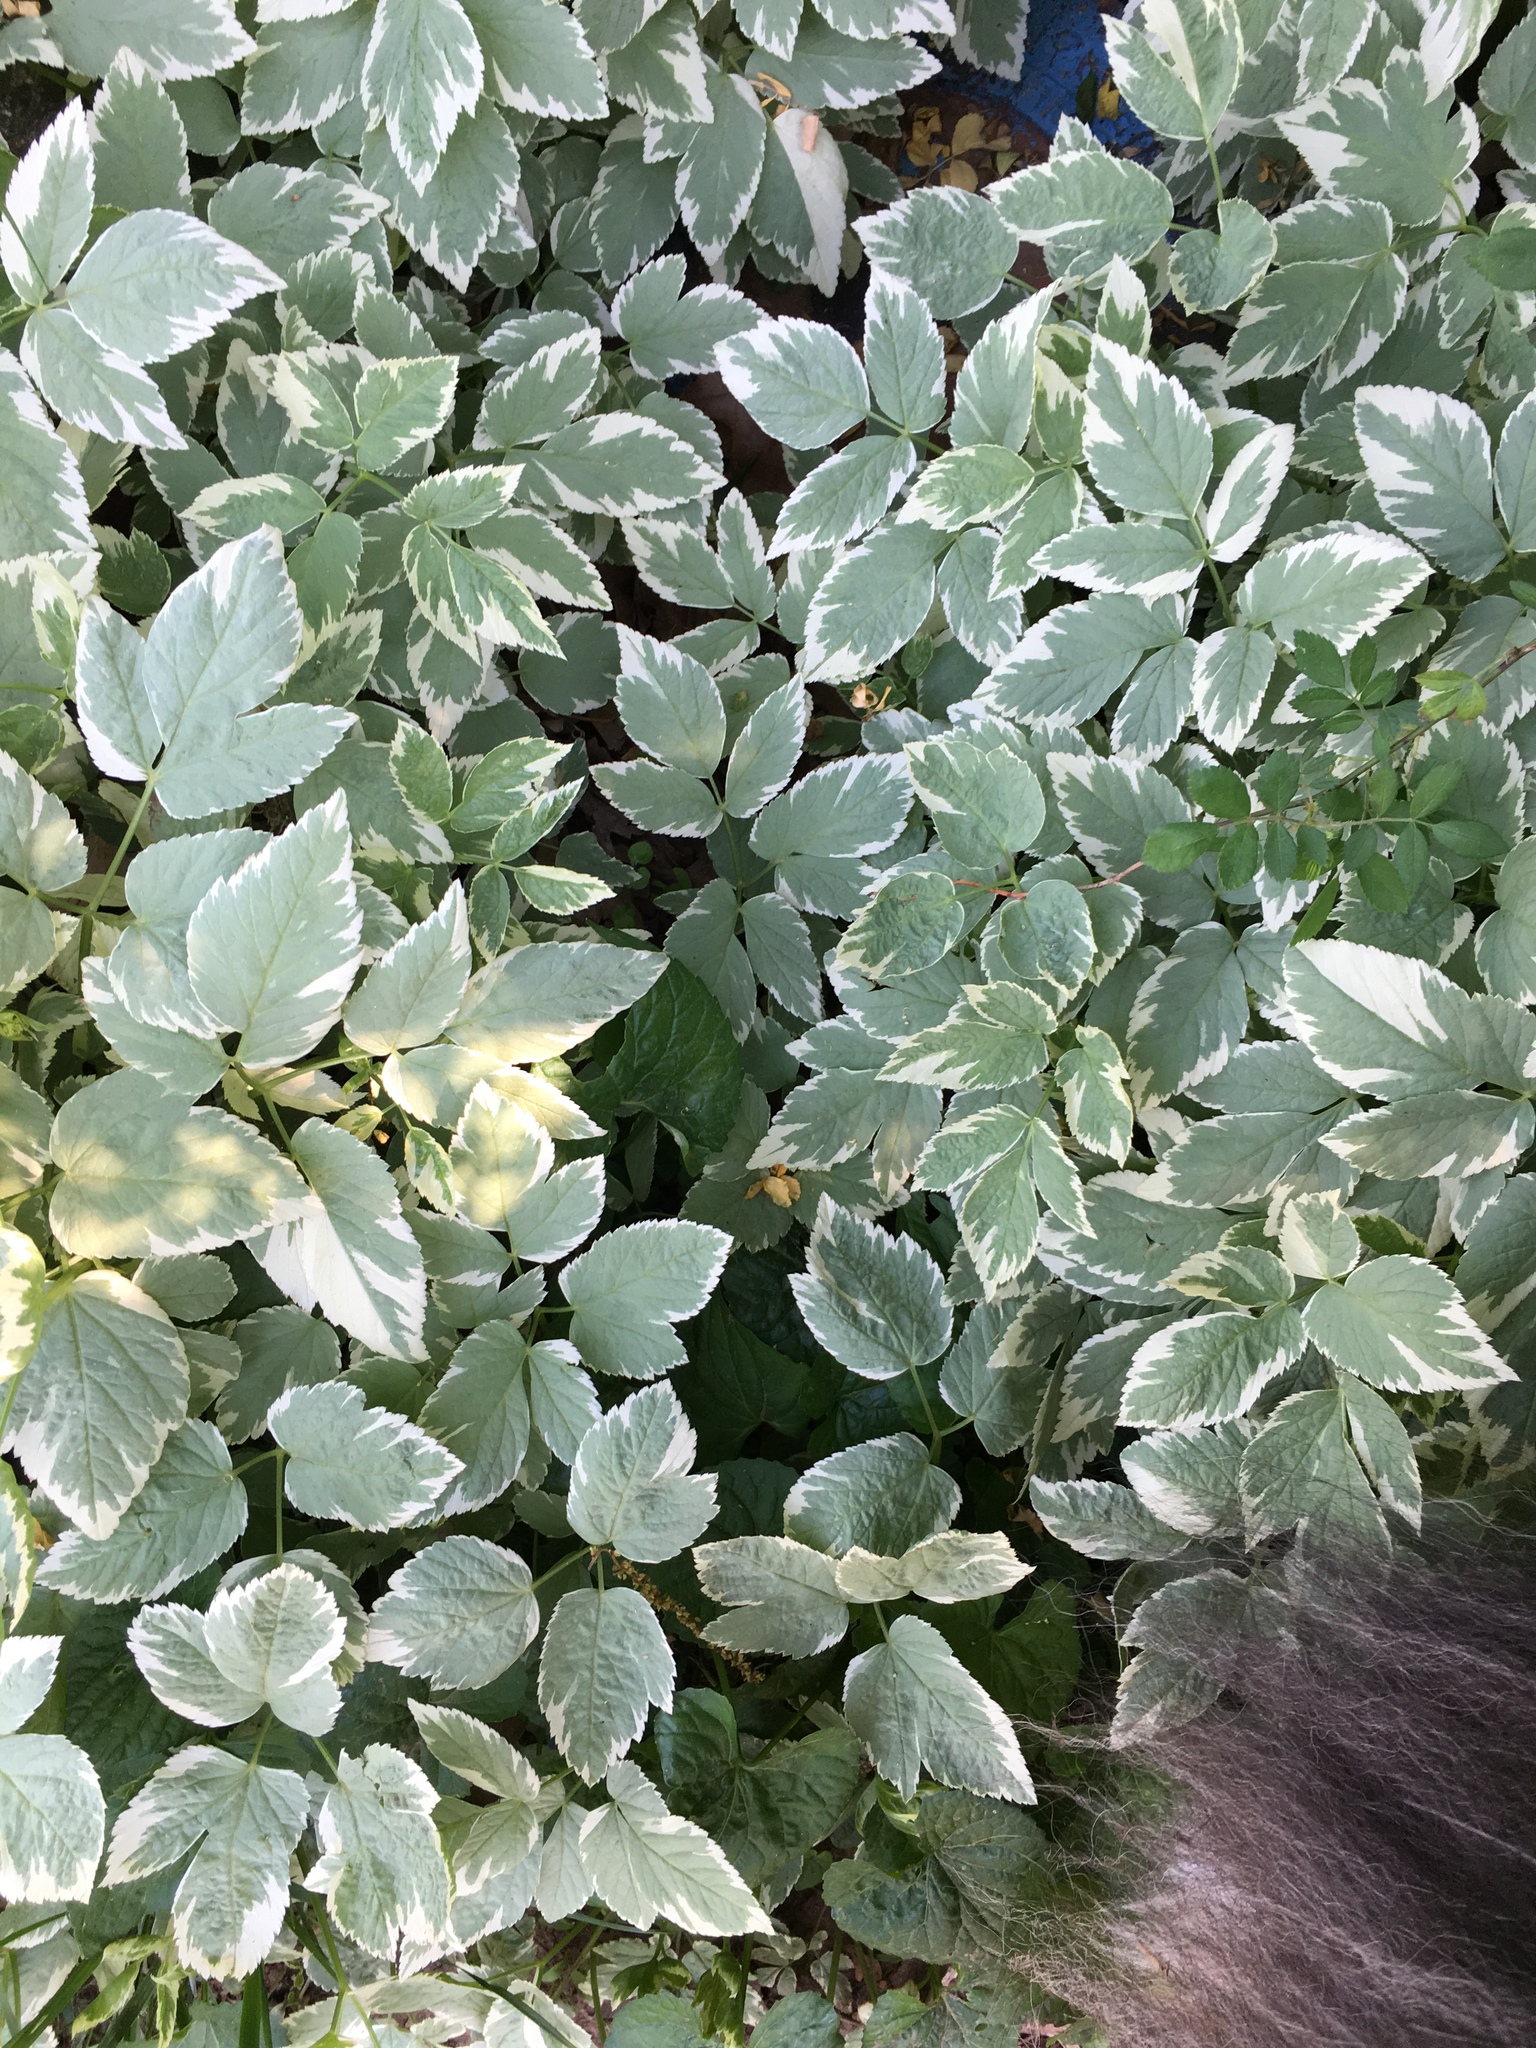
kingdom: Plantae
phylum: Tracheophyta
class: Magnoliopsida
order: Apiales
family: Apiaceae
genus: Aegopodium
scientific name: Aegopodium podagraria
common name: Ground-elder
